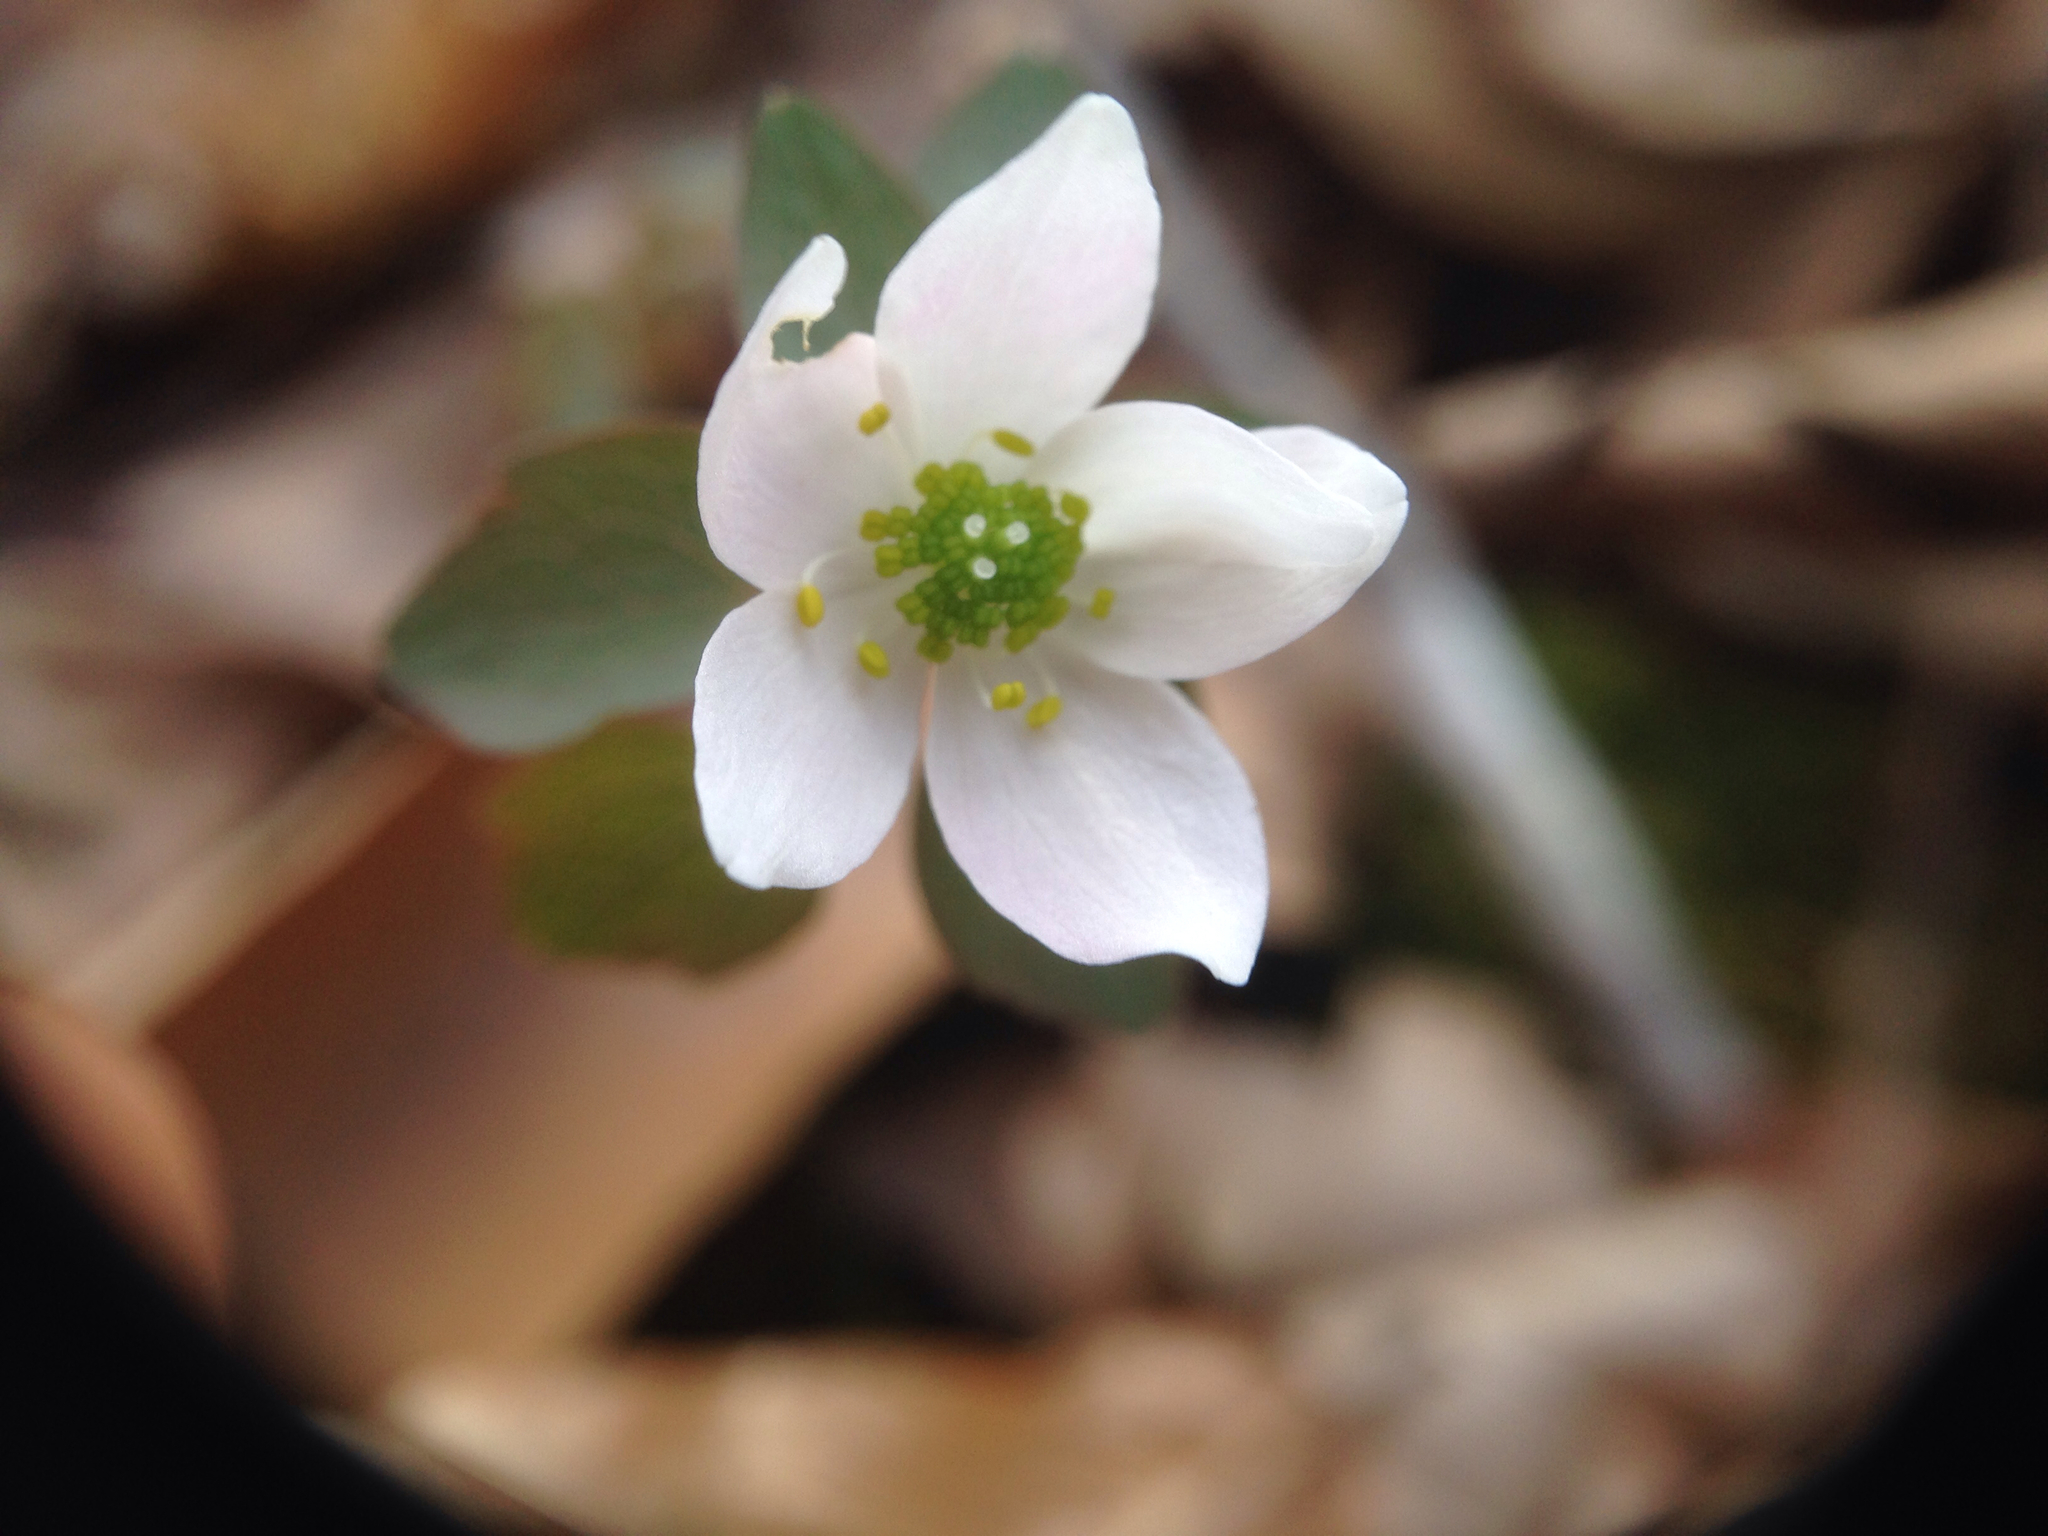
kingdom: Plantae
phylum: Tracheophyta
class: Magnoliopsida
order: Ranunculales
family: Ranunculaceae
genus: Thalictrum
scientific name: Thalictrum thalictroides
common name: Rue-anemone
